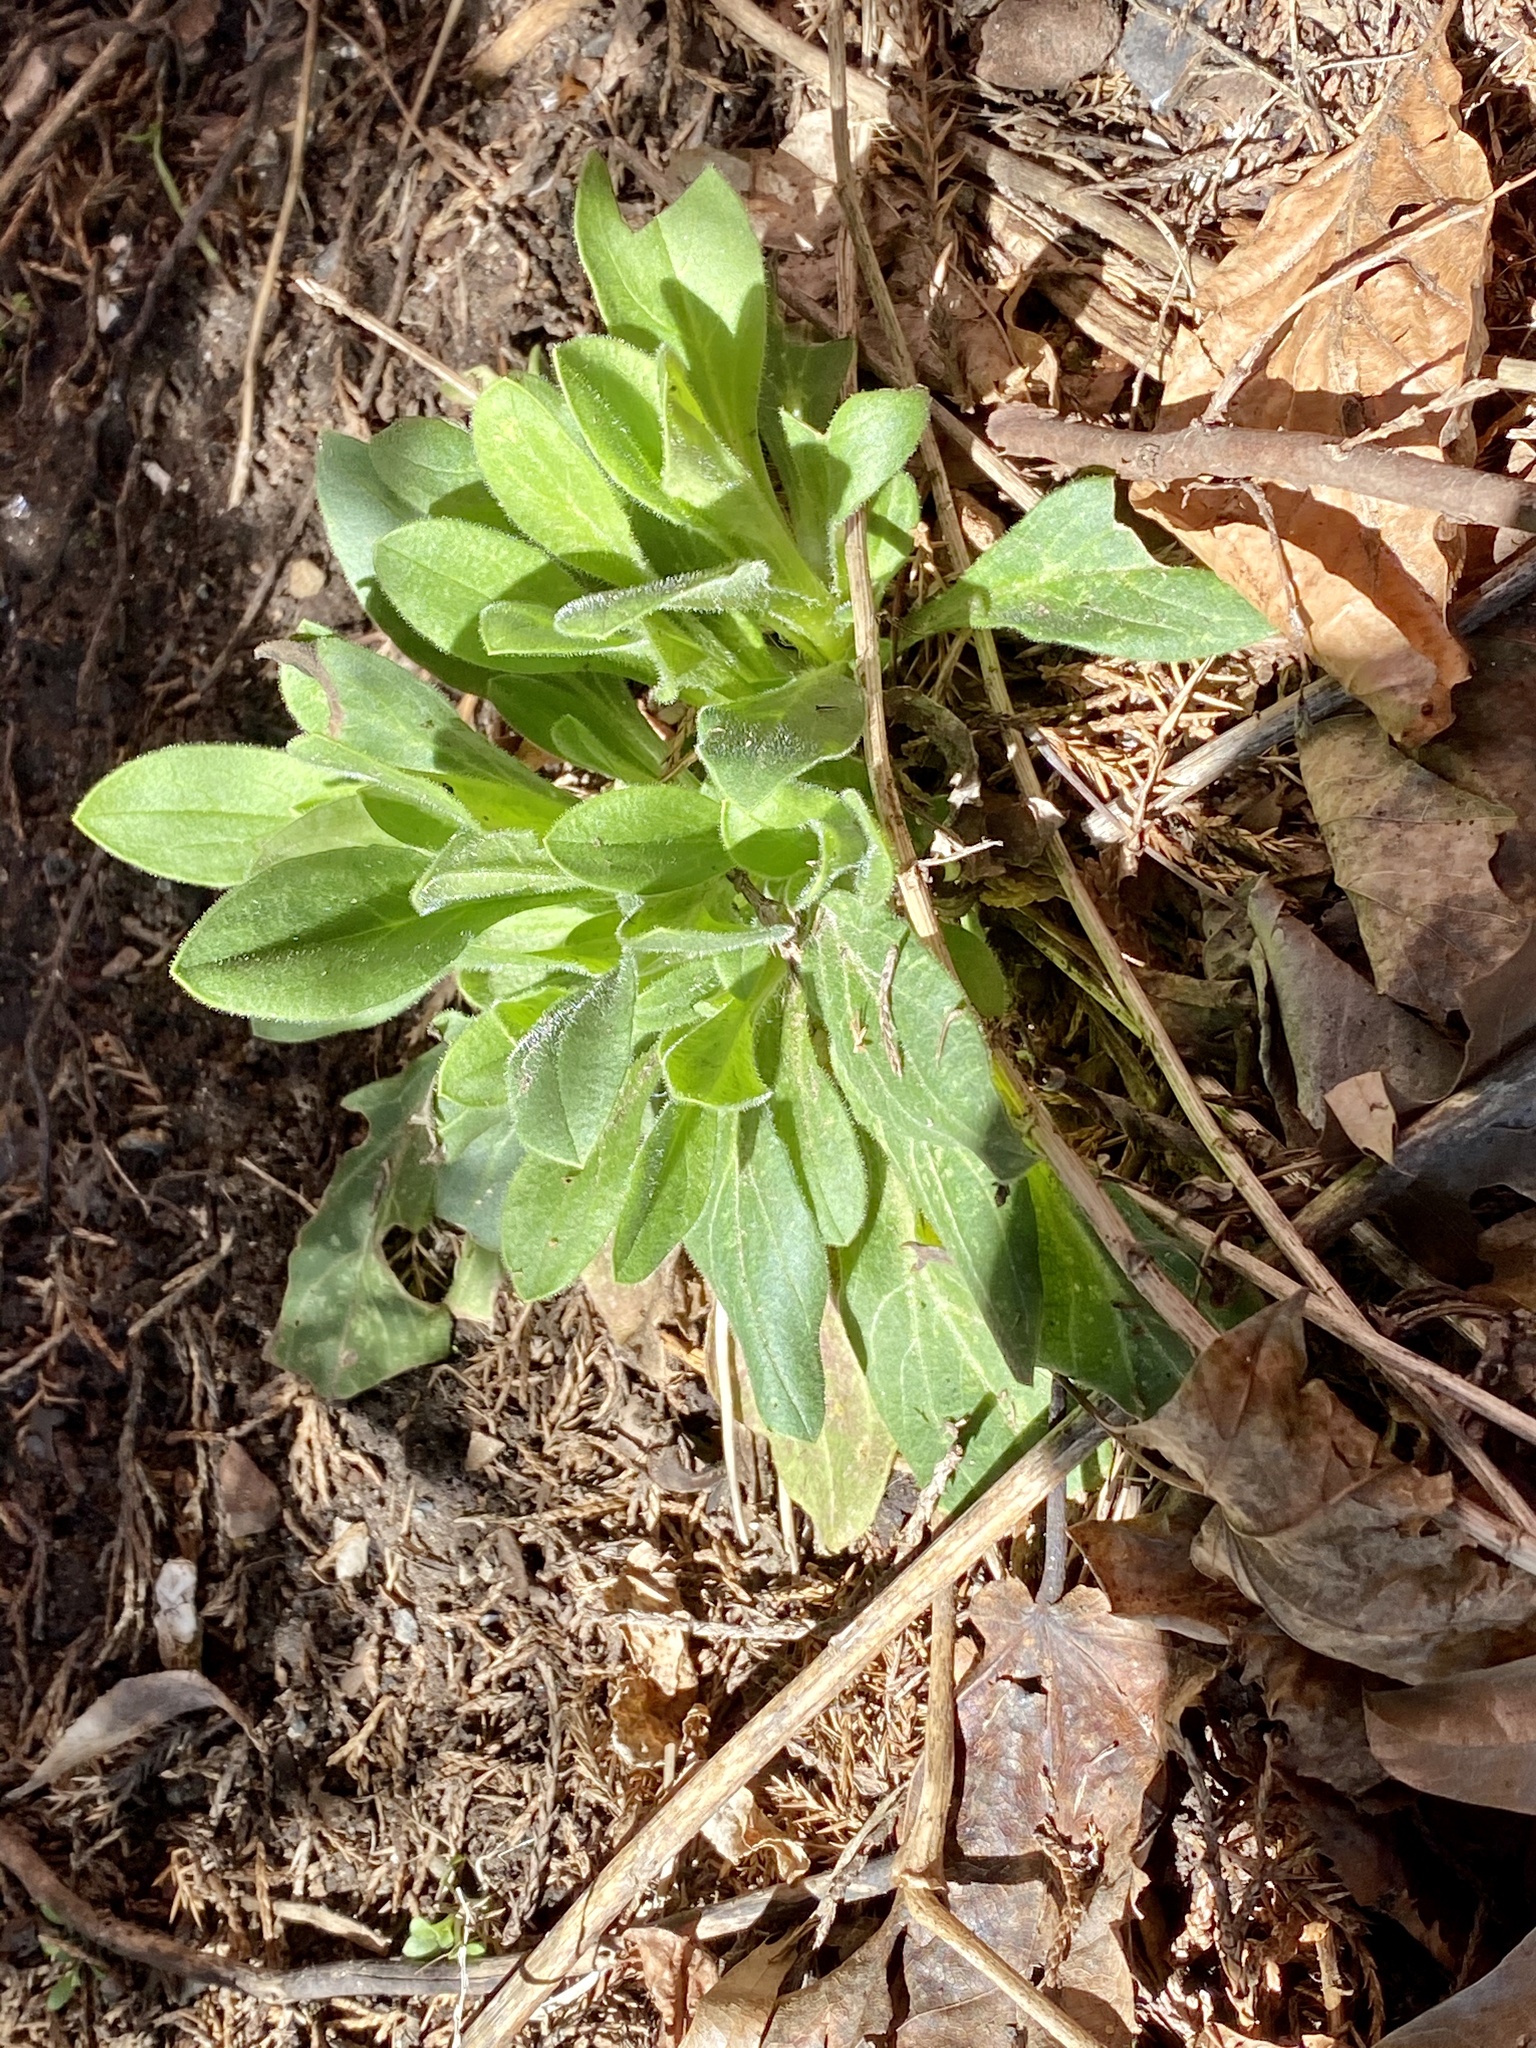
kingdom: Plantae
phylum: Tracheophyta
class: Magnoliopsida
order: Caryophyllales
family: Caryophyllaceae
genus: Silene
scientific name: Silene latifolia
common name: White campion
